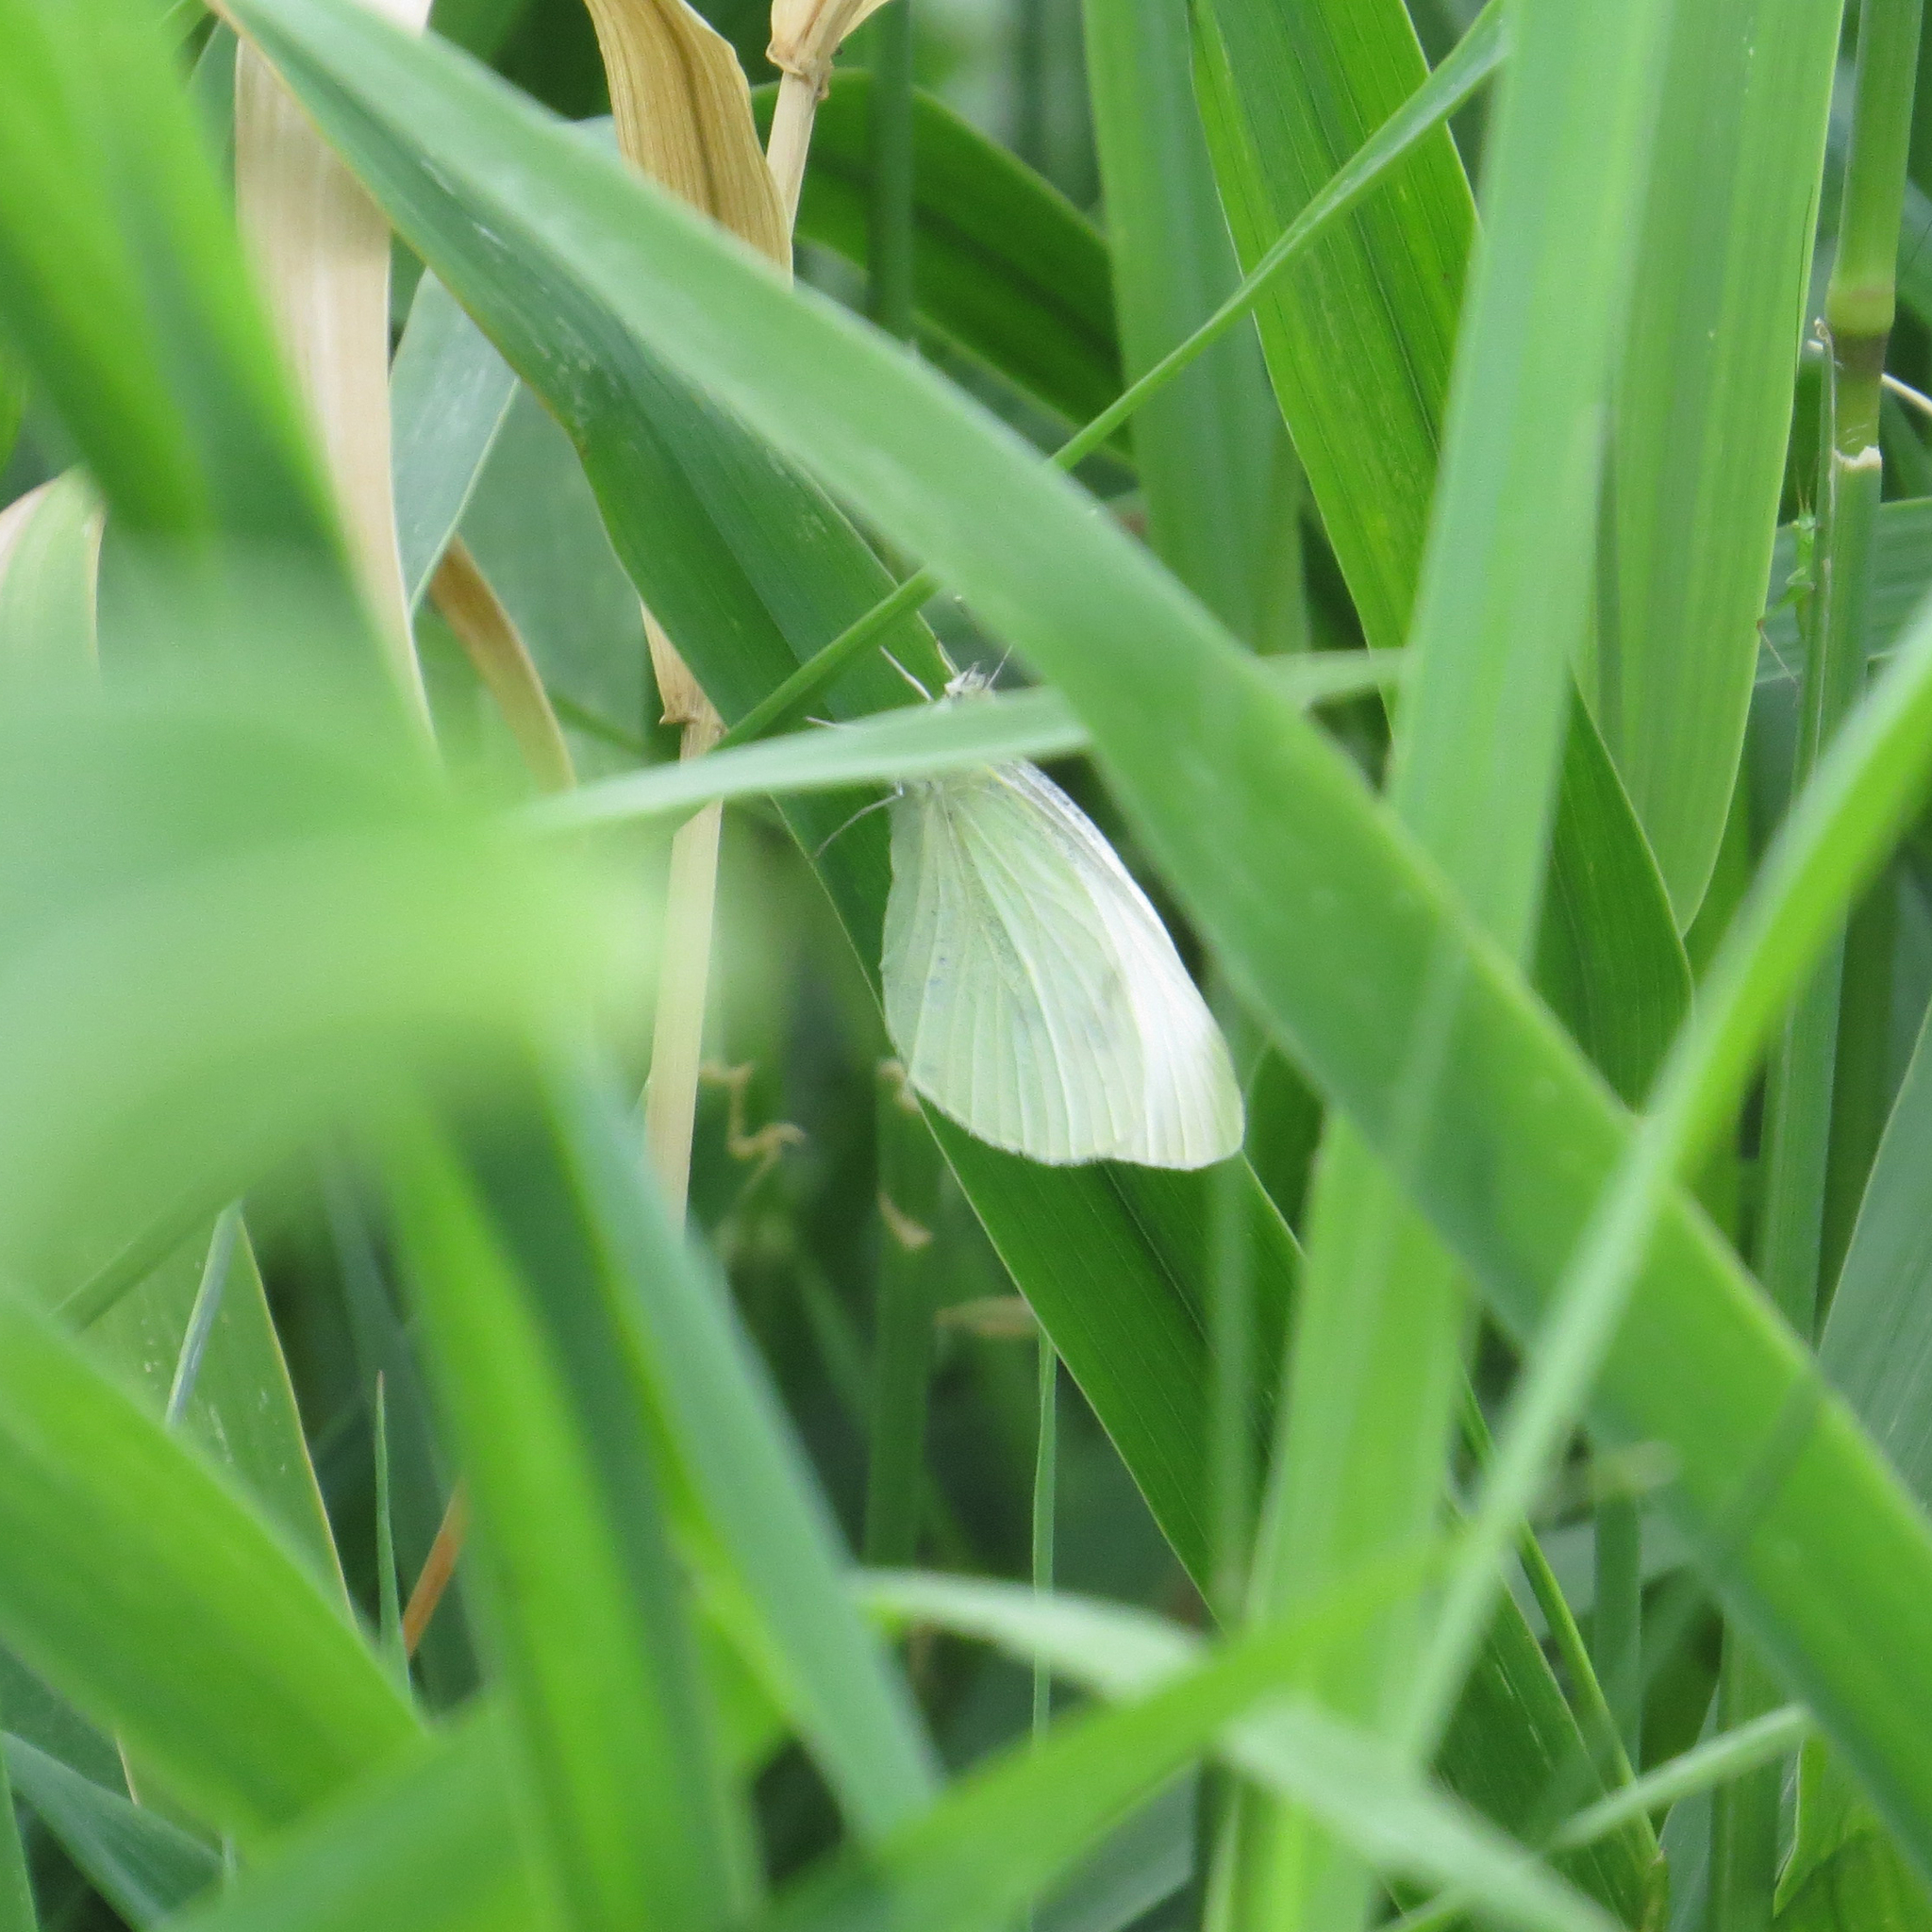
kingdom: Animalia
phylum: Arthropoda
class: Insecta
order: Lepidoptera
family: Pieridae
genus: Pieris
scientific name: Pieris rapae
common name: Small white
